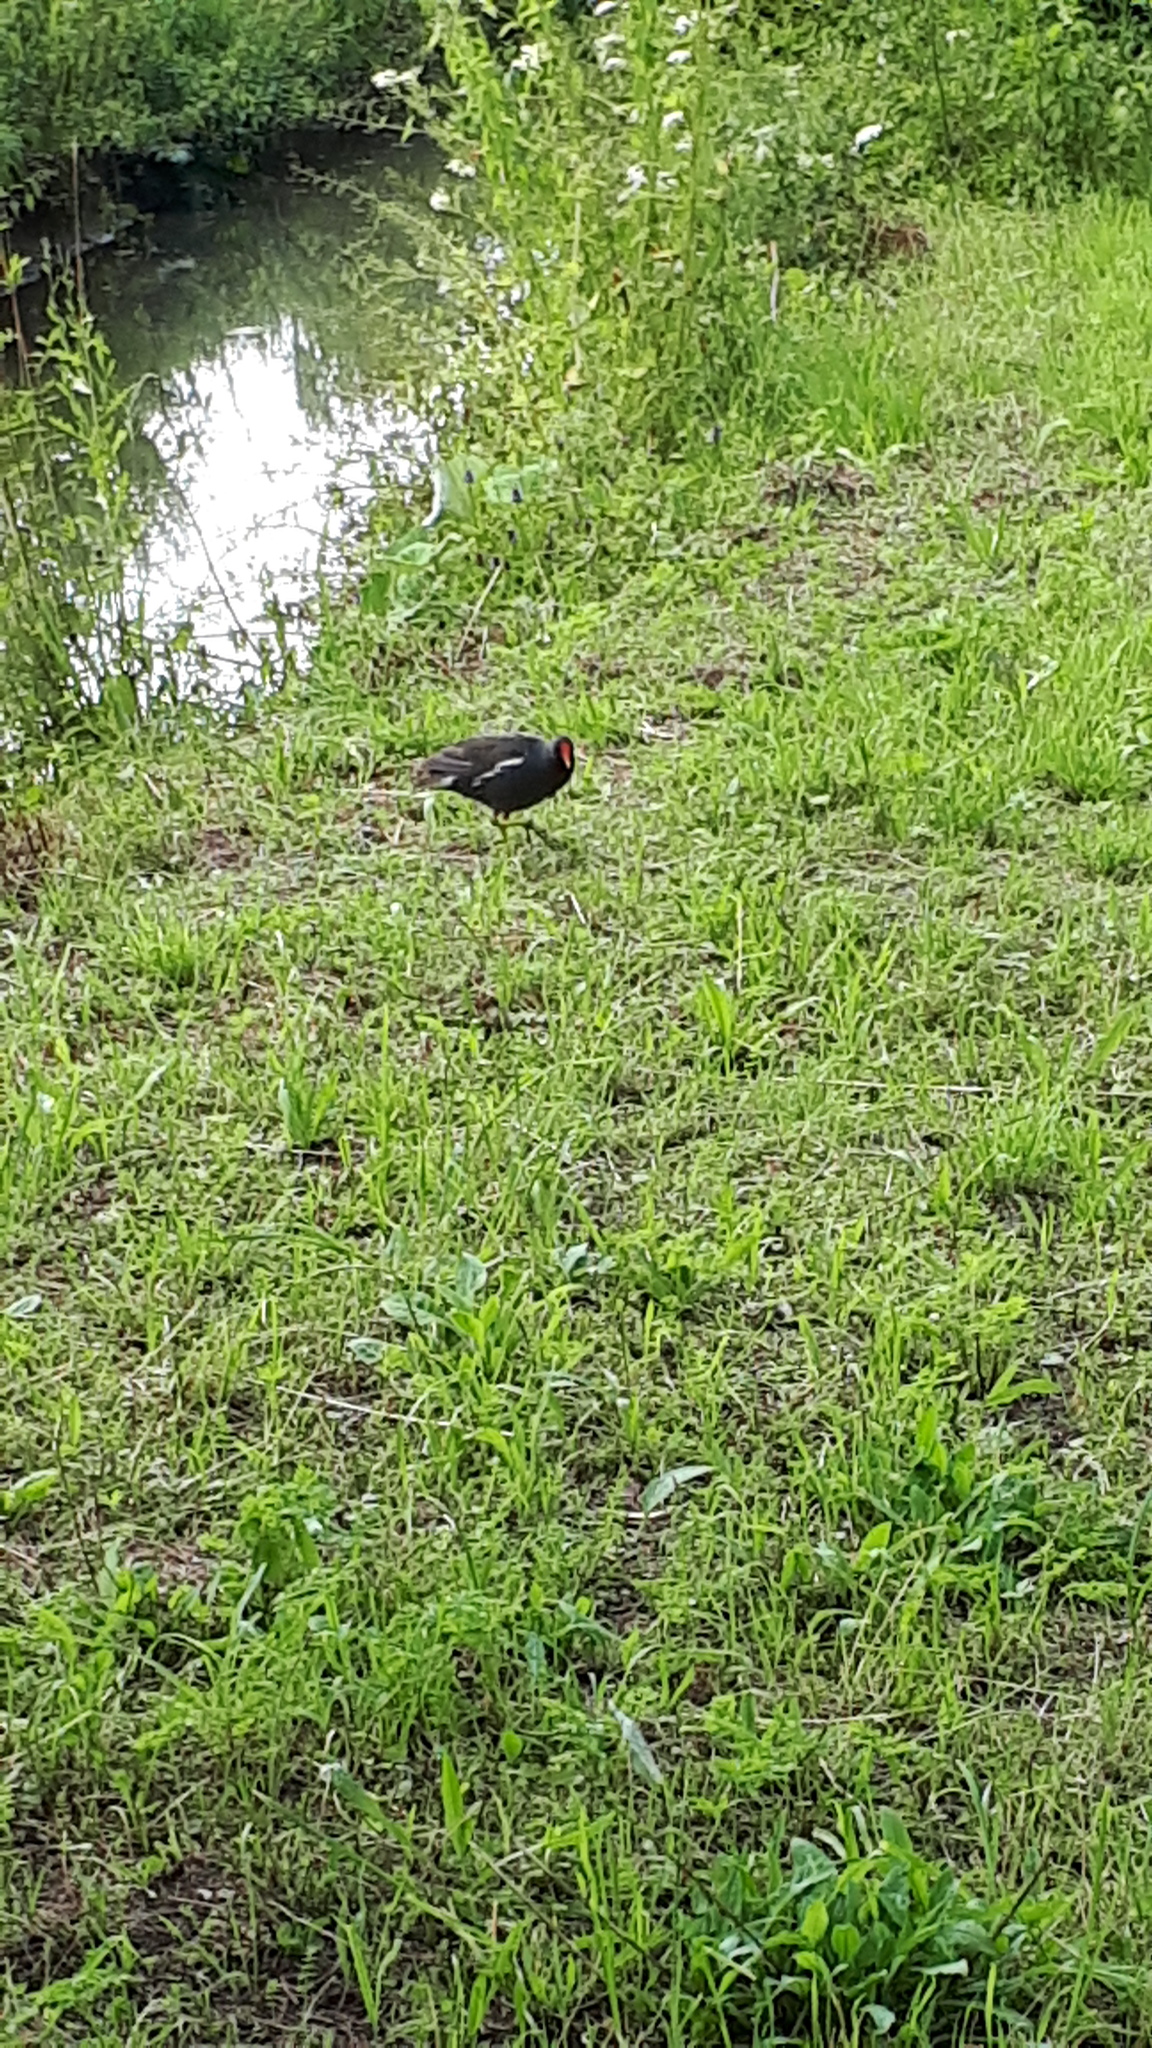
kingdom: Animalia
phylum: Chordata
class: Aves
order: Gruiformes
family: Rallidae
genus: Gallinula
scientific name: Gallinula chloropus
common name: Common moorhen
